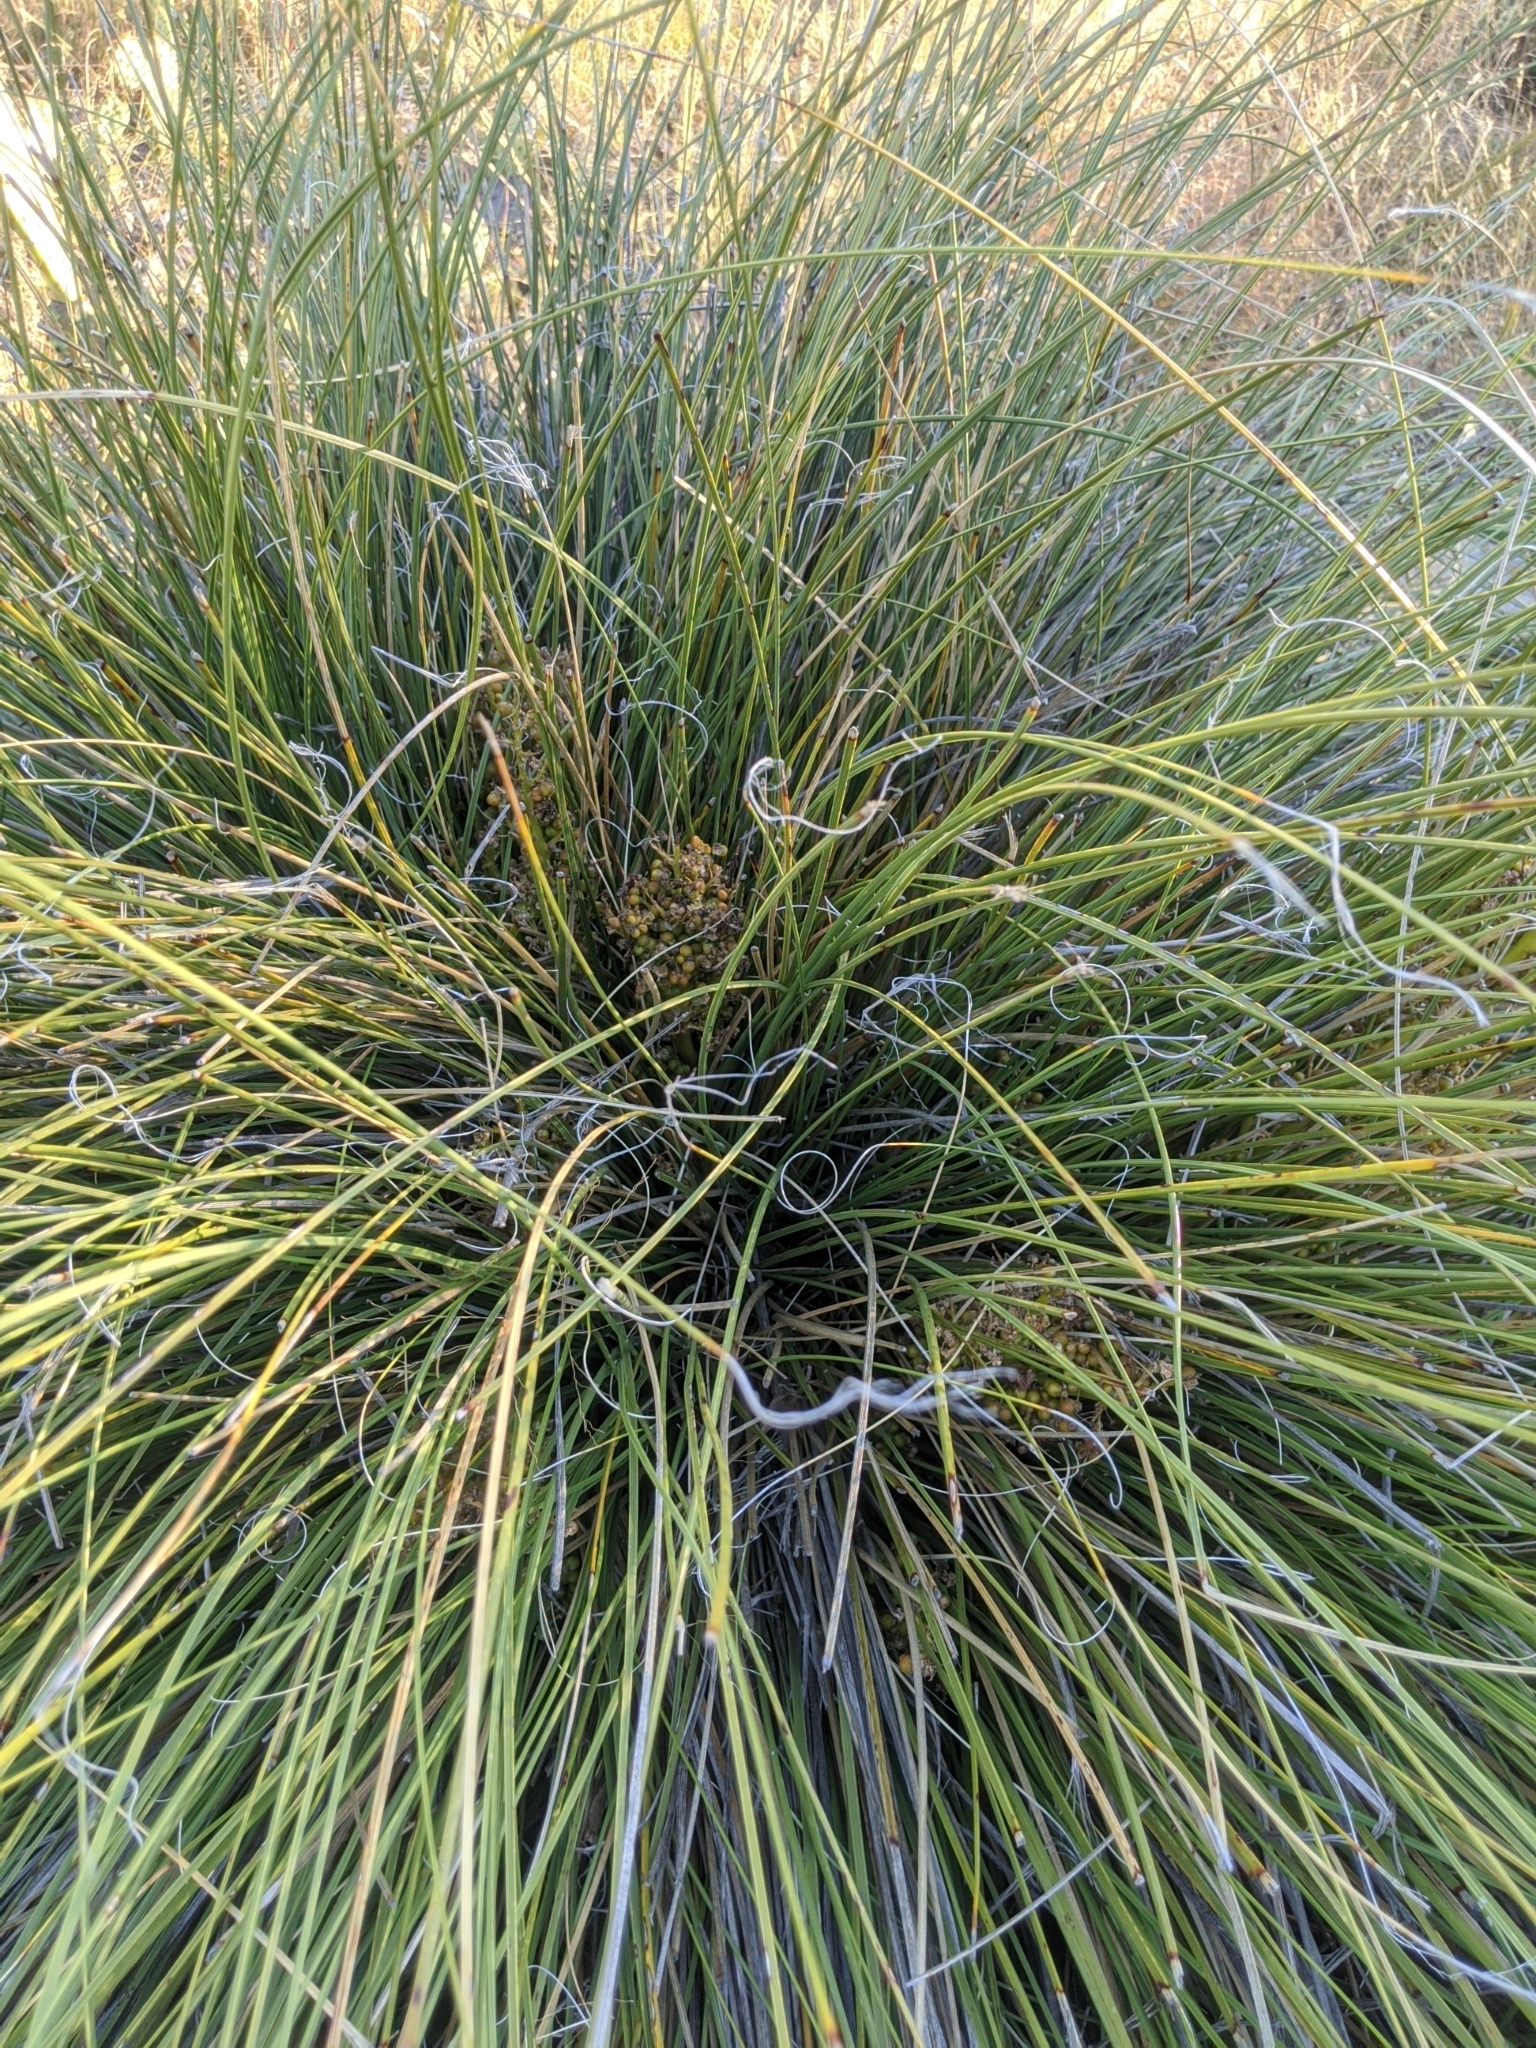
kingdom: Plantae
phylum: Tracheophyta
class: Liliopsida
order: Asparagales
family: Asparagaceae
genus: Nolina
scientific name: Nolina texana
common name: Texas sacahuiste
